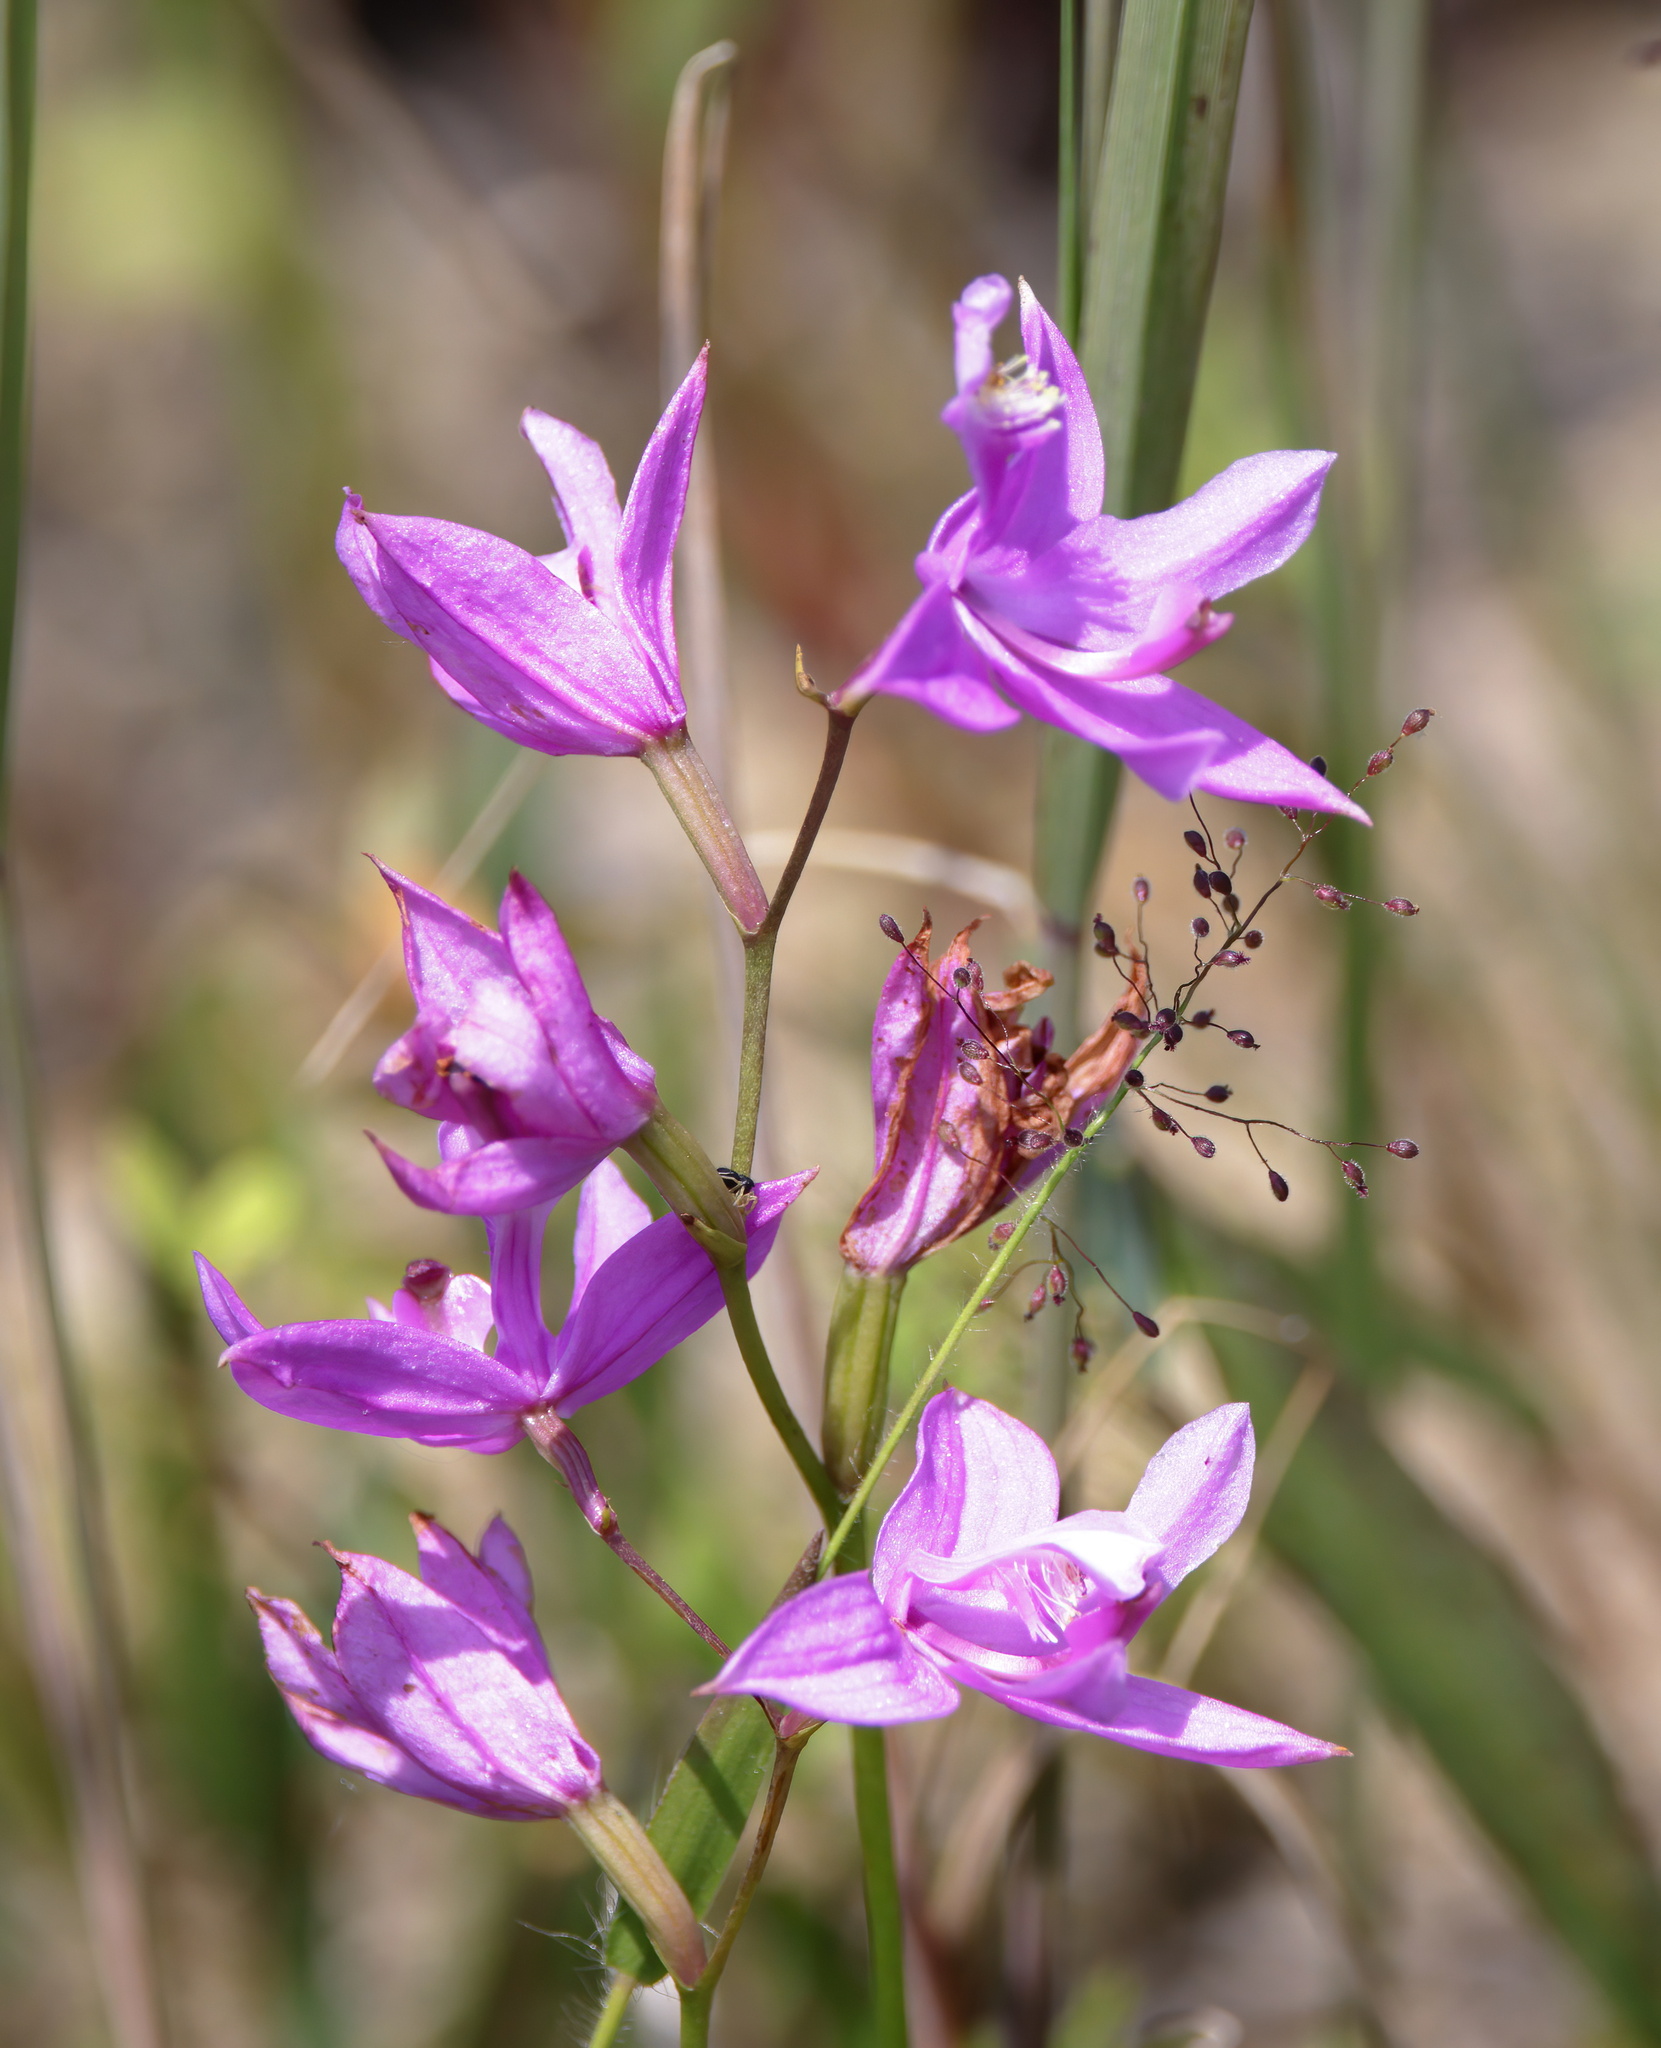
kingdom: Plantae
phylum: Tracheophyta
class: Liliopsida
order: Asparagales
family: Orchidaceae
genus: Calopogon
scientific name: Calopogon tuberosus
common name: Grass-pink
